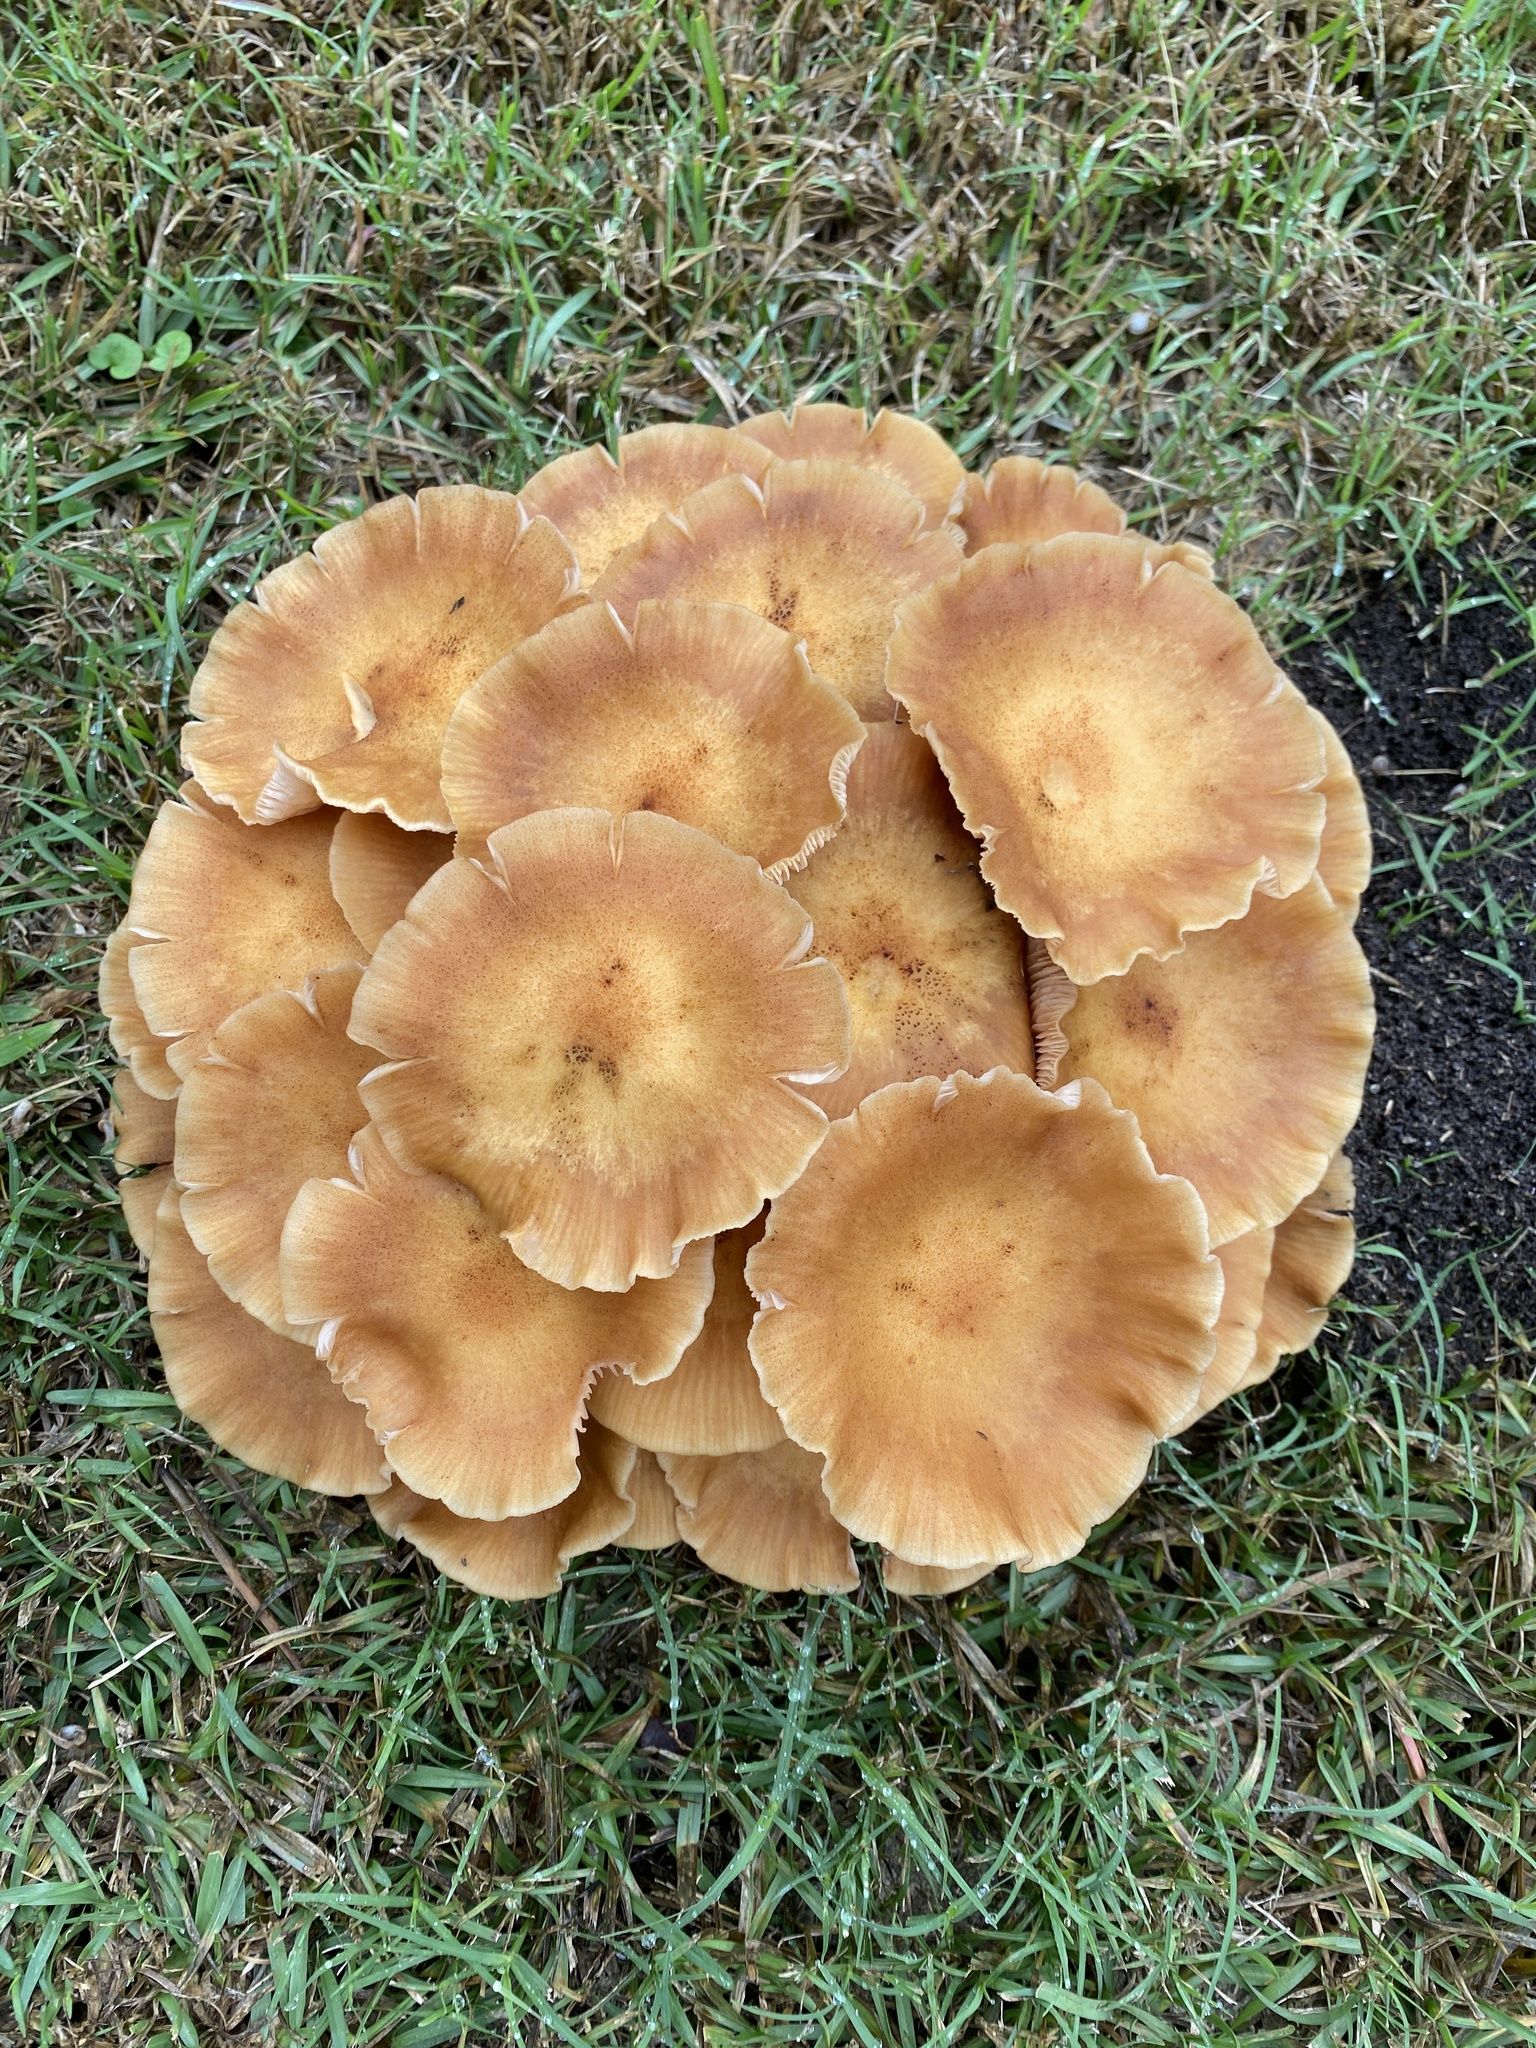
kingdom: Fungi
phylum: Basidiomycota
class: Agaricomycetes
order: Agaricales
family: Physalacriaceae
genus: Desarmillaria
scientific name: Desarmillaria caespitosa
